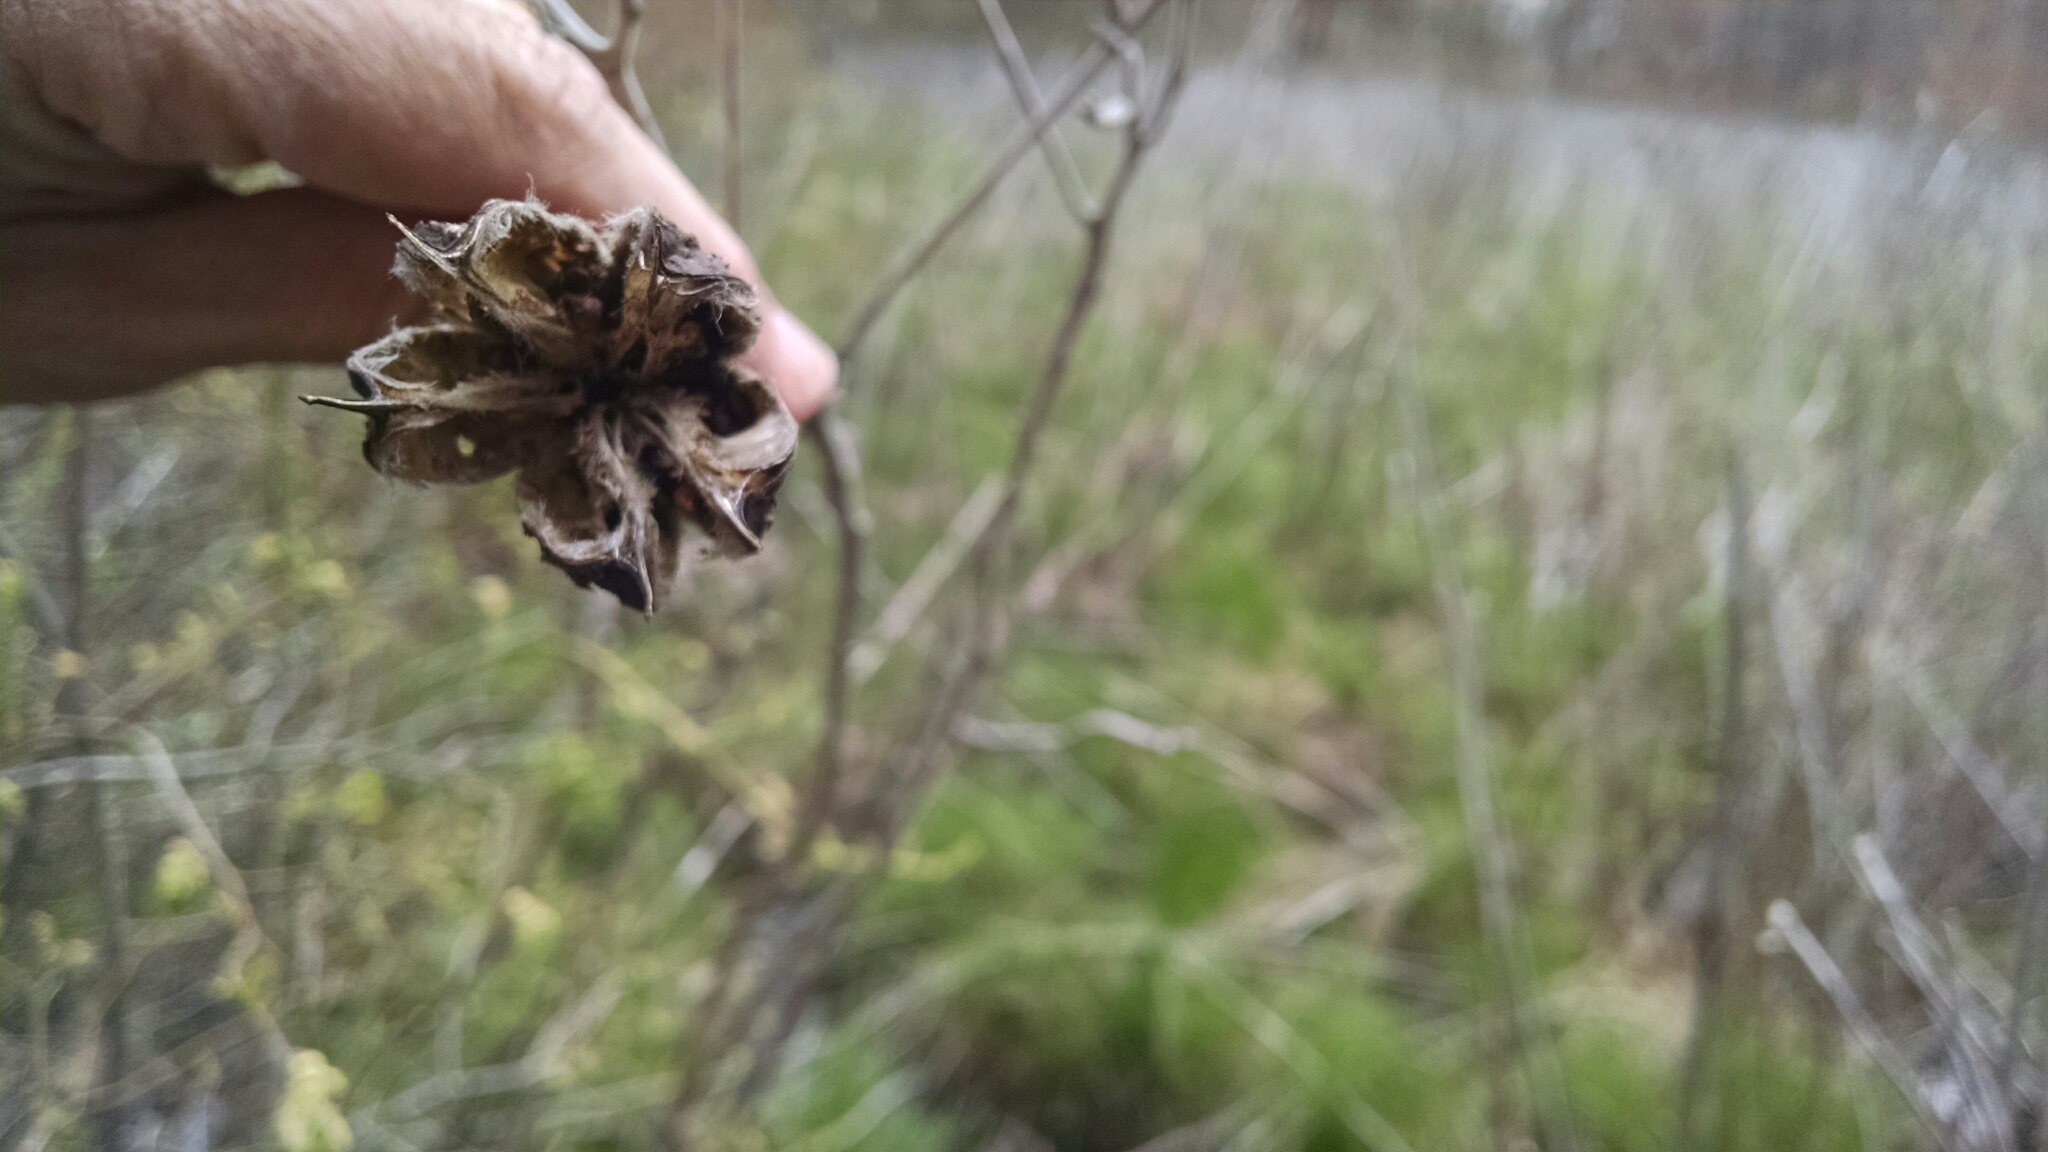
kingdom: Plantae
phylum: Tracheophyta
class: Magnoliopsida
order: Malvales
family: Malvaceae
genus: Hibiscus
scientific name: Hibiscus moscheutos
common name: Common rose-mallow
